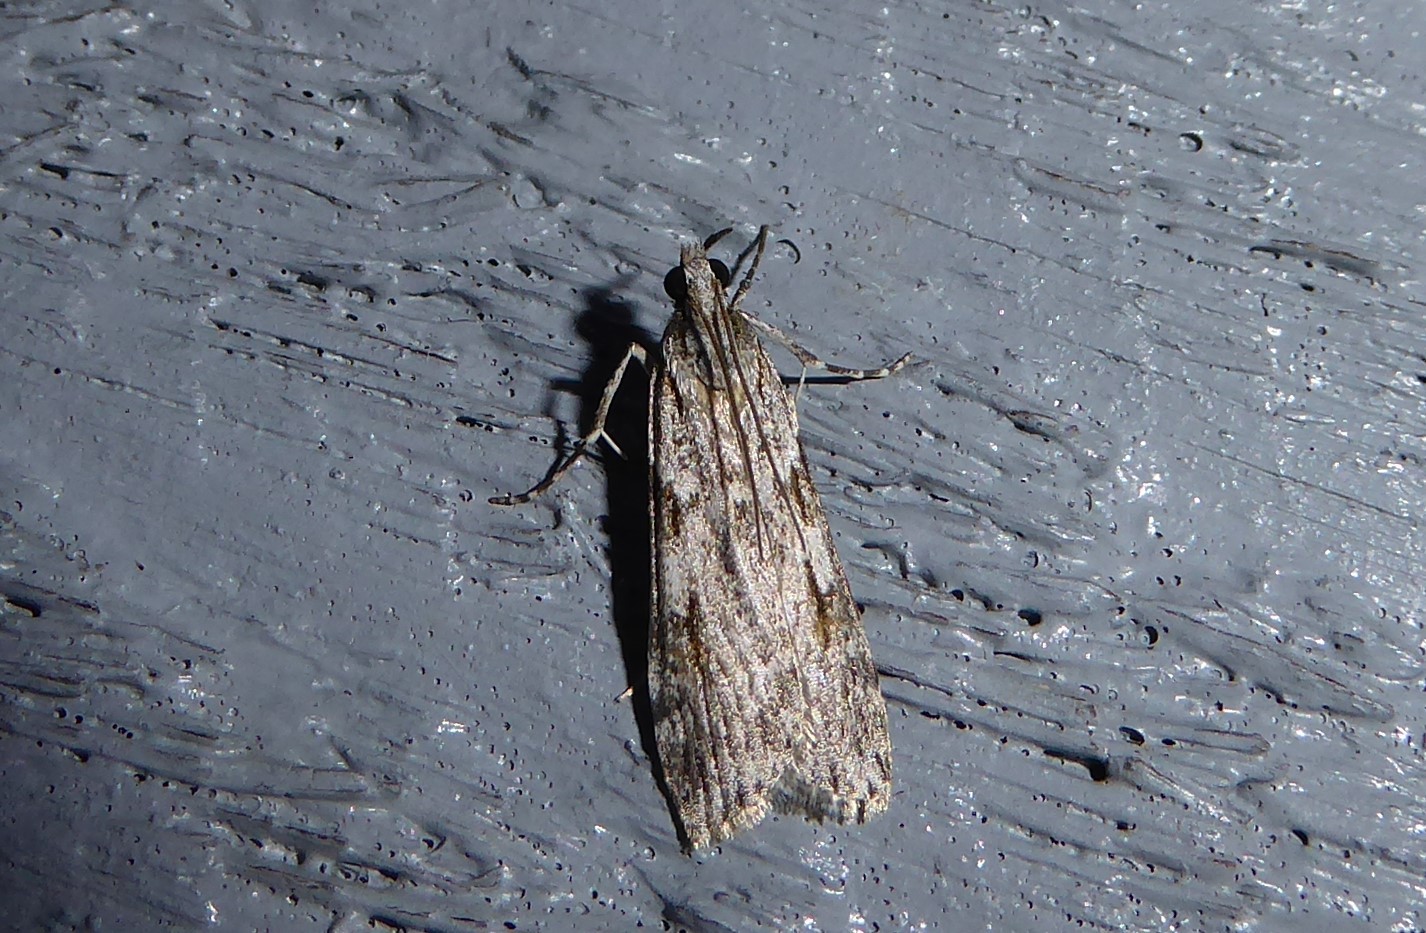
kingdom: Animalia
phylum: Arthropoda
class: Insecta
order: Lepidoptera
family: Crambidae
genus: Scoparia
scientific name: Scoparia halopis
